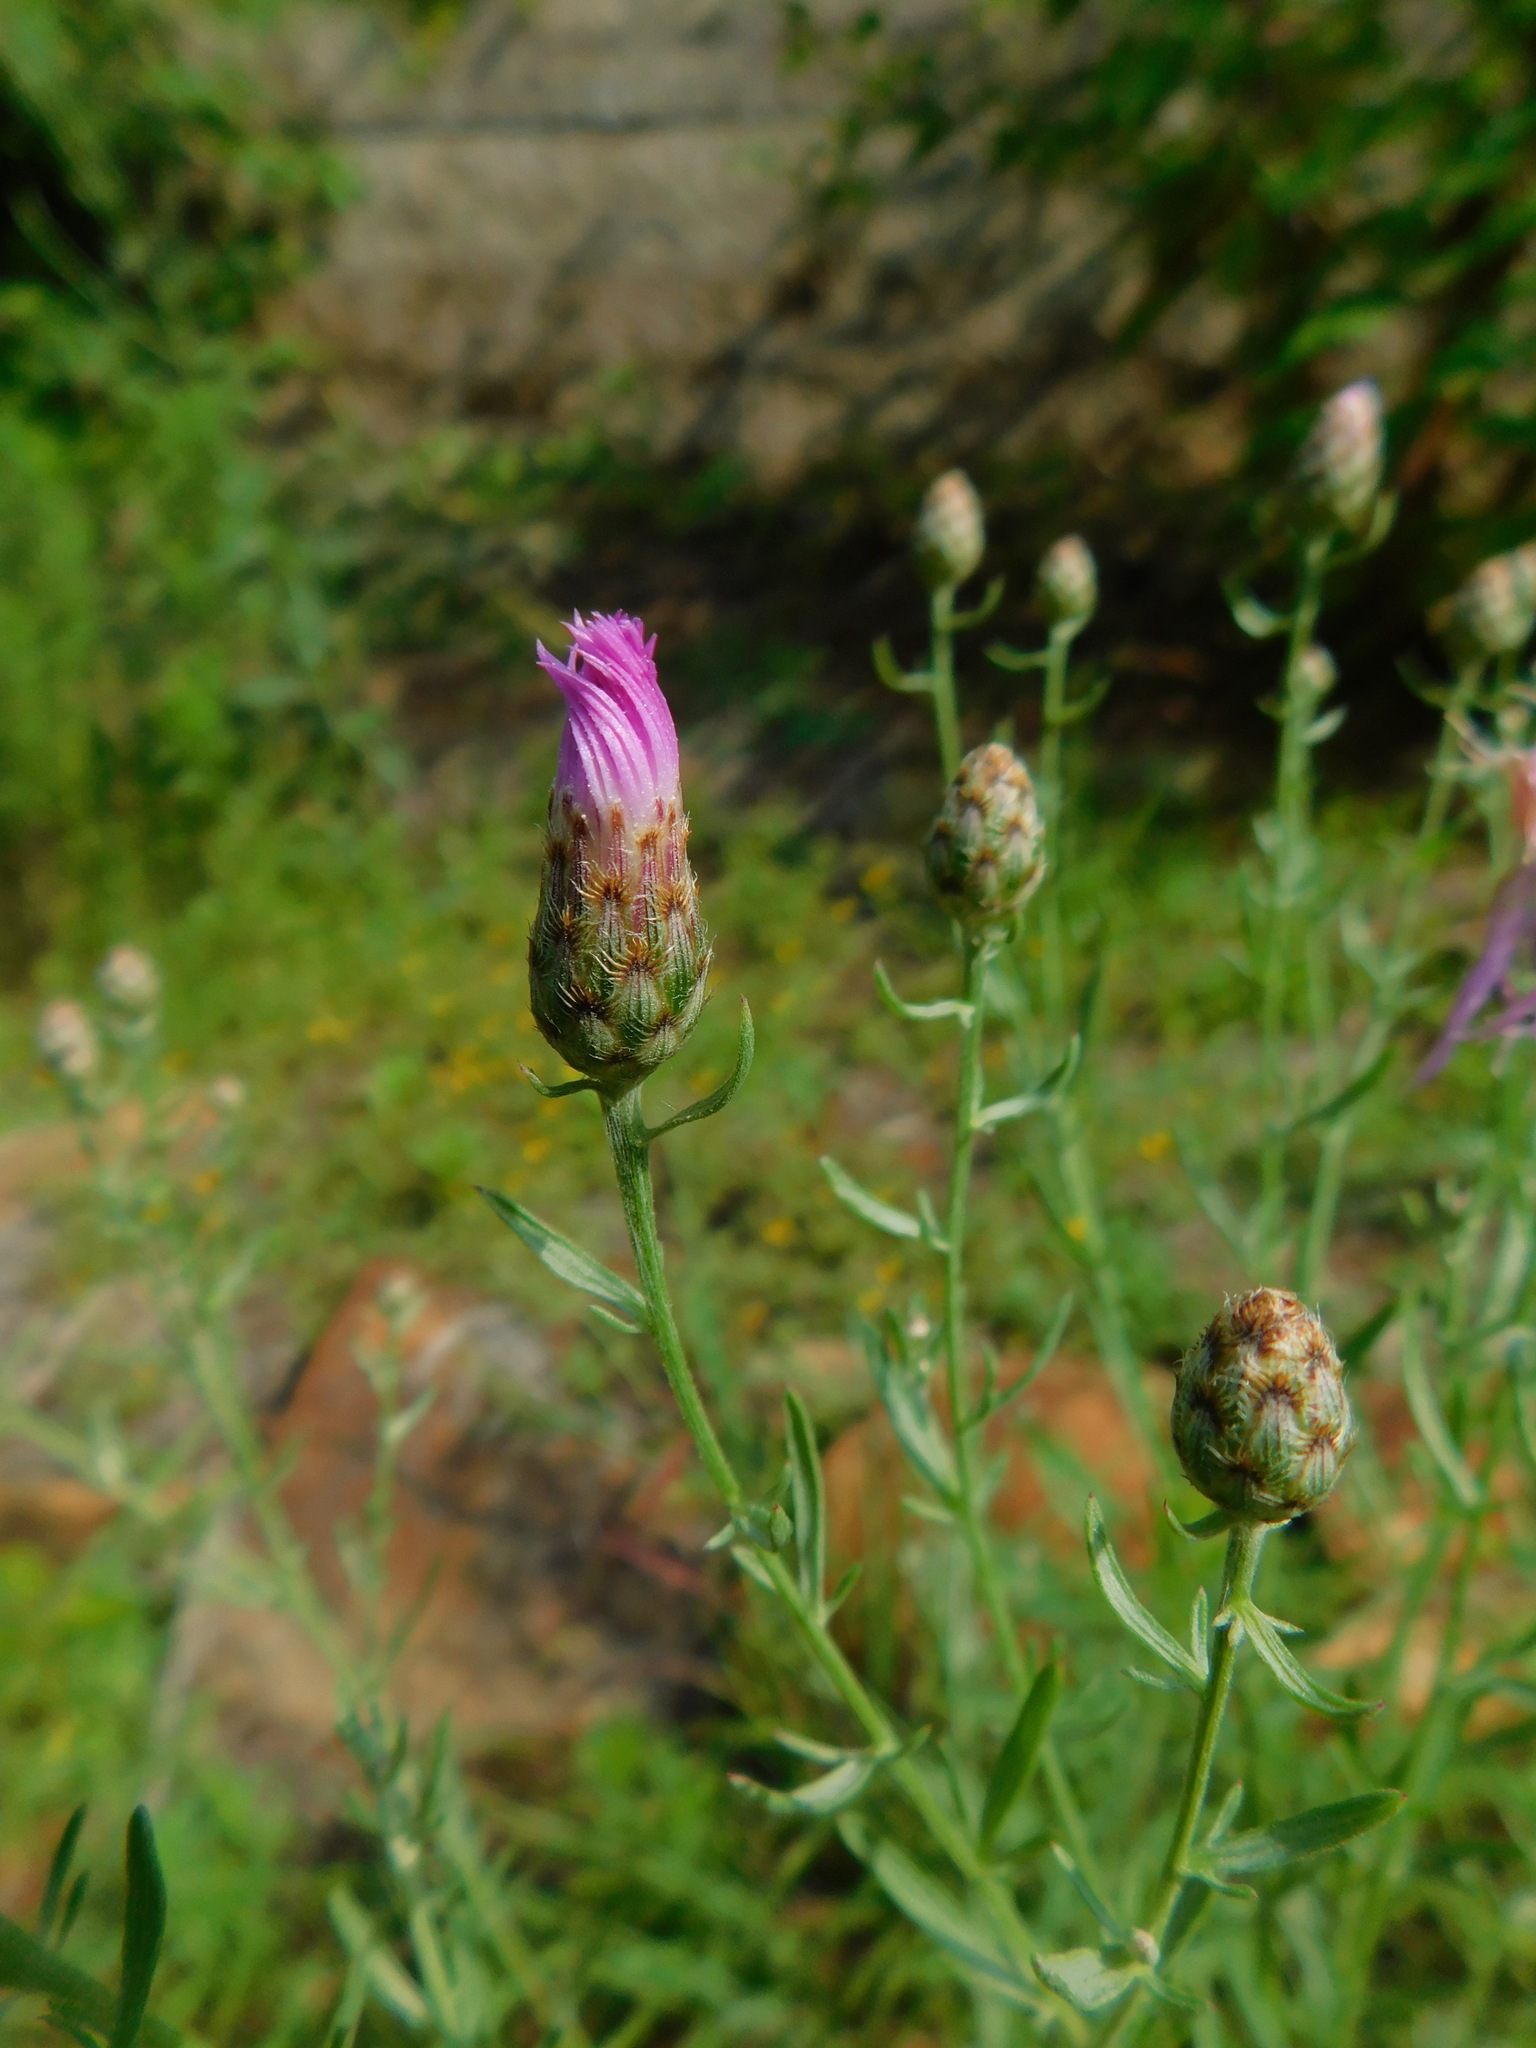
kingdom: Plantae
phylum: Tracheophyta
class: Magnoliopsida
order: Asterales
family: Asteraceae
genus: Centaurea
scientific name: Centaurea stoebe
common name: Spotted knapweed
